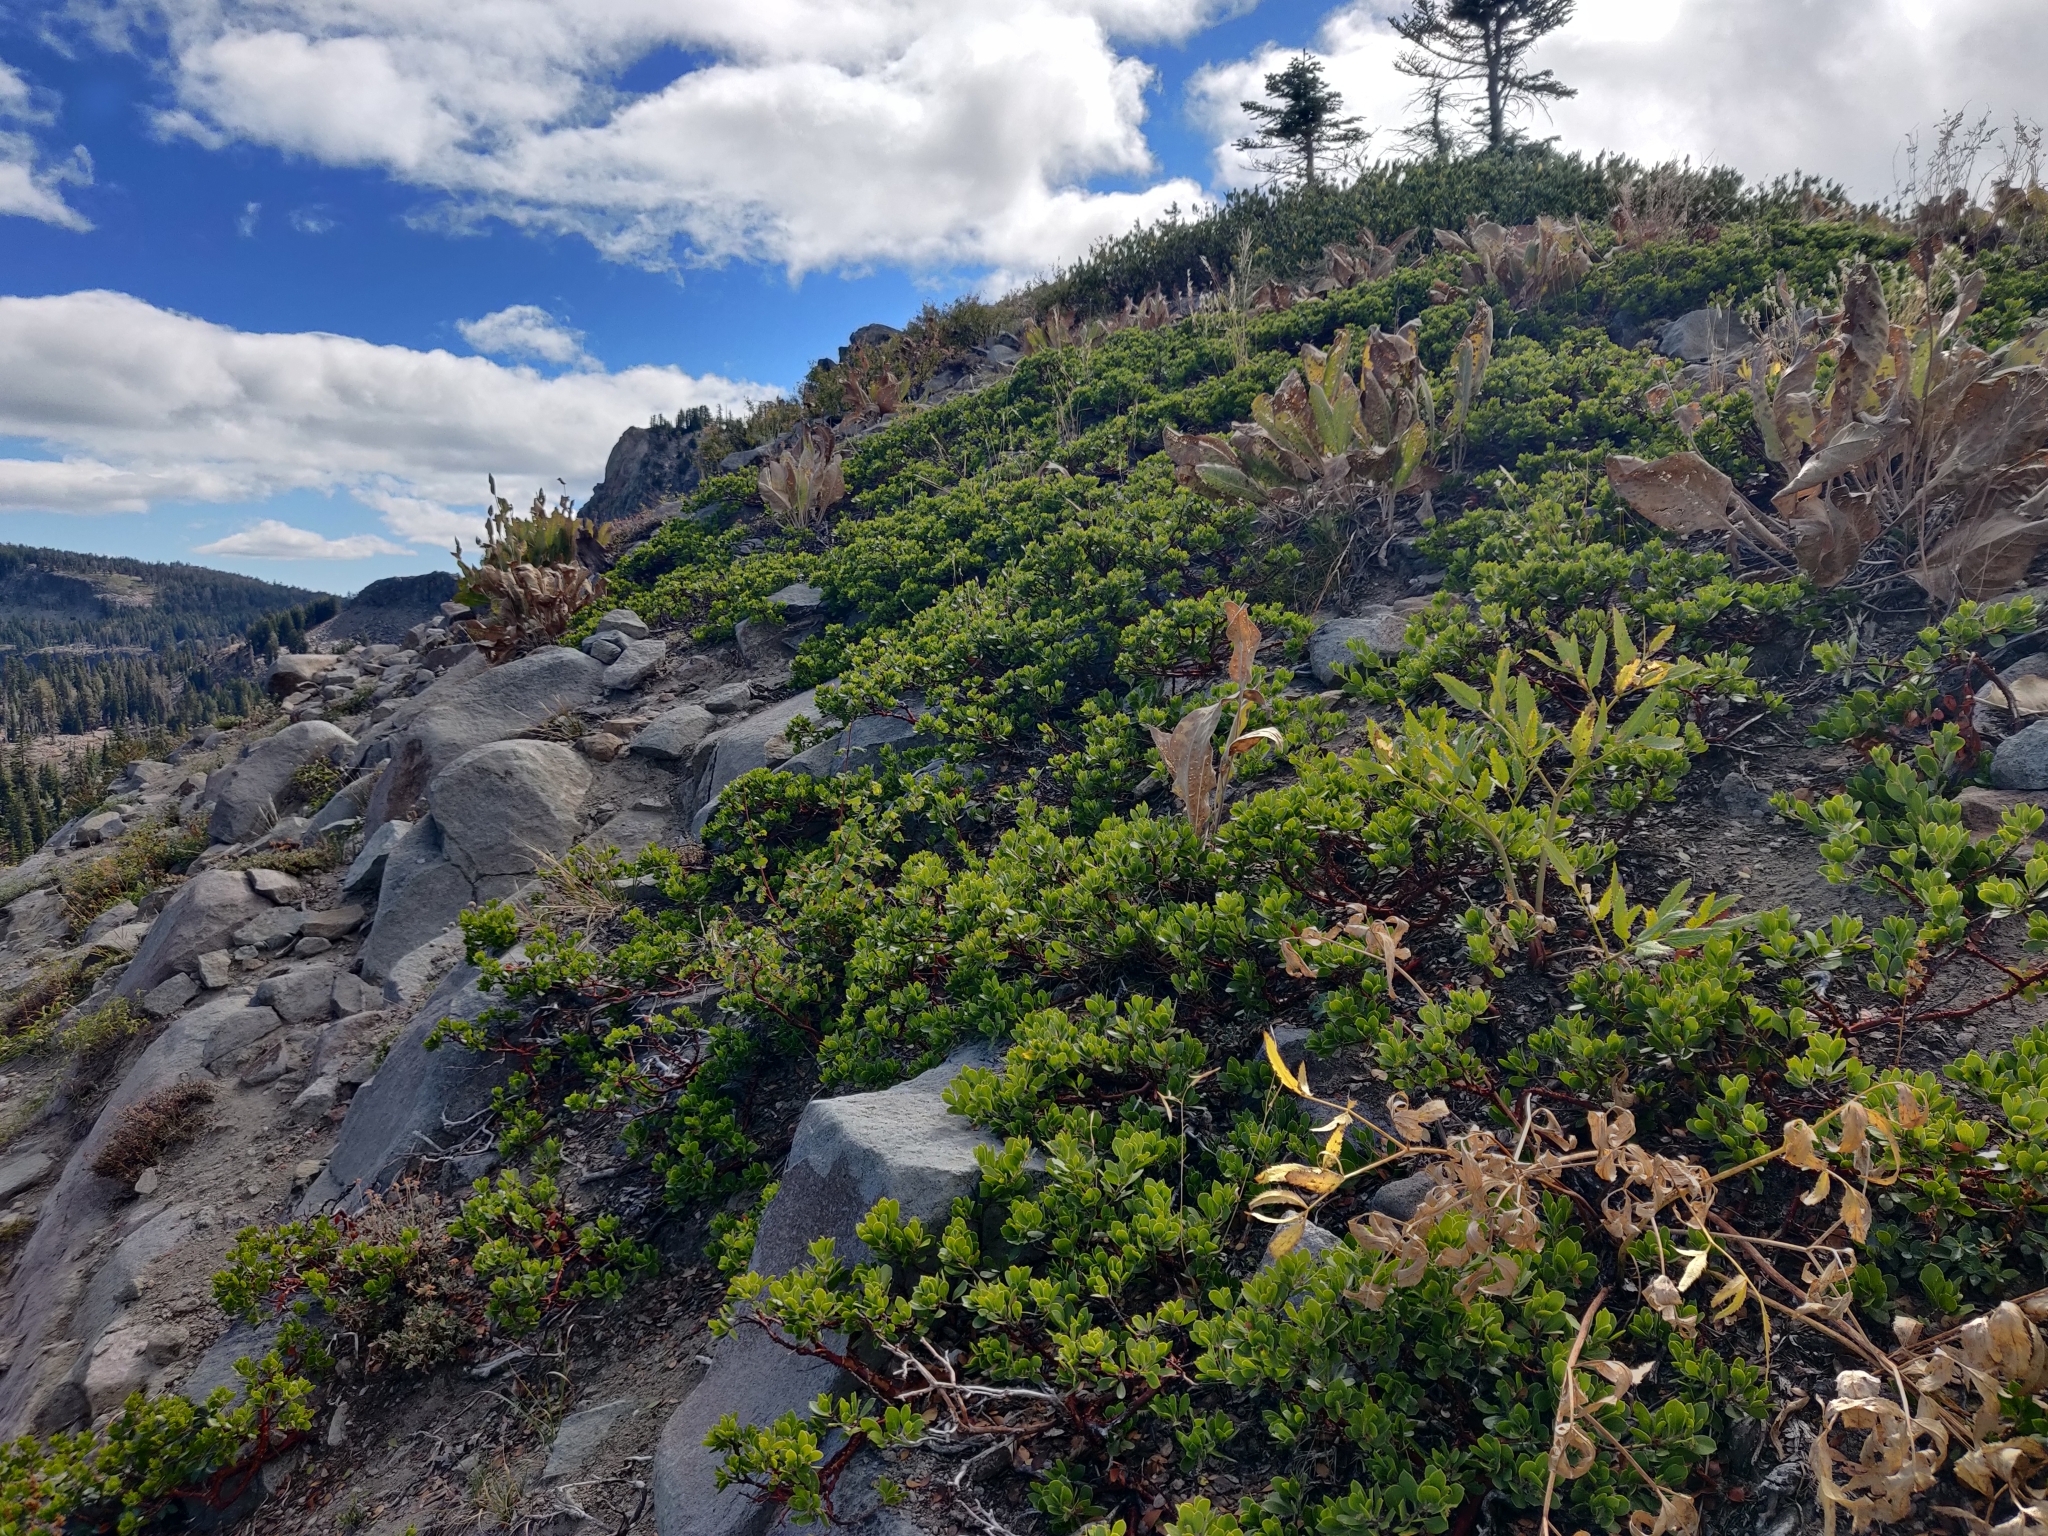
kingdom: Plantae
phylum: Tracheophyta
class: Magnoliopsida
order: Ericales
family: Ericaceae
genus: Arctostaphylos
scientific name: Arctostaphylos nevadensis
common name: Pinemat manzanita
